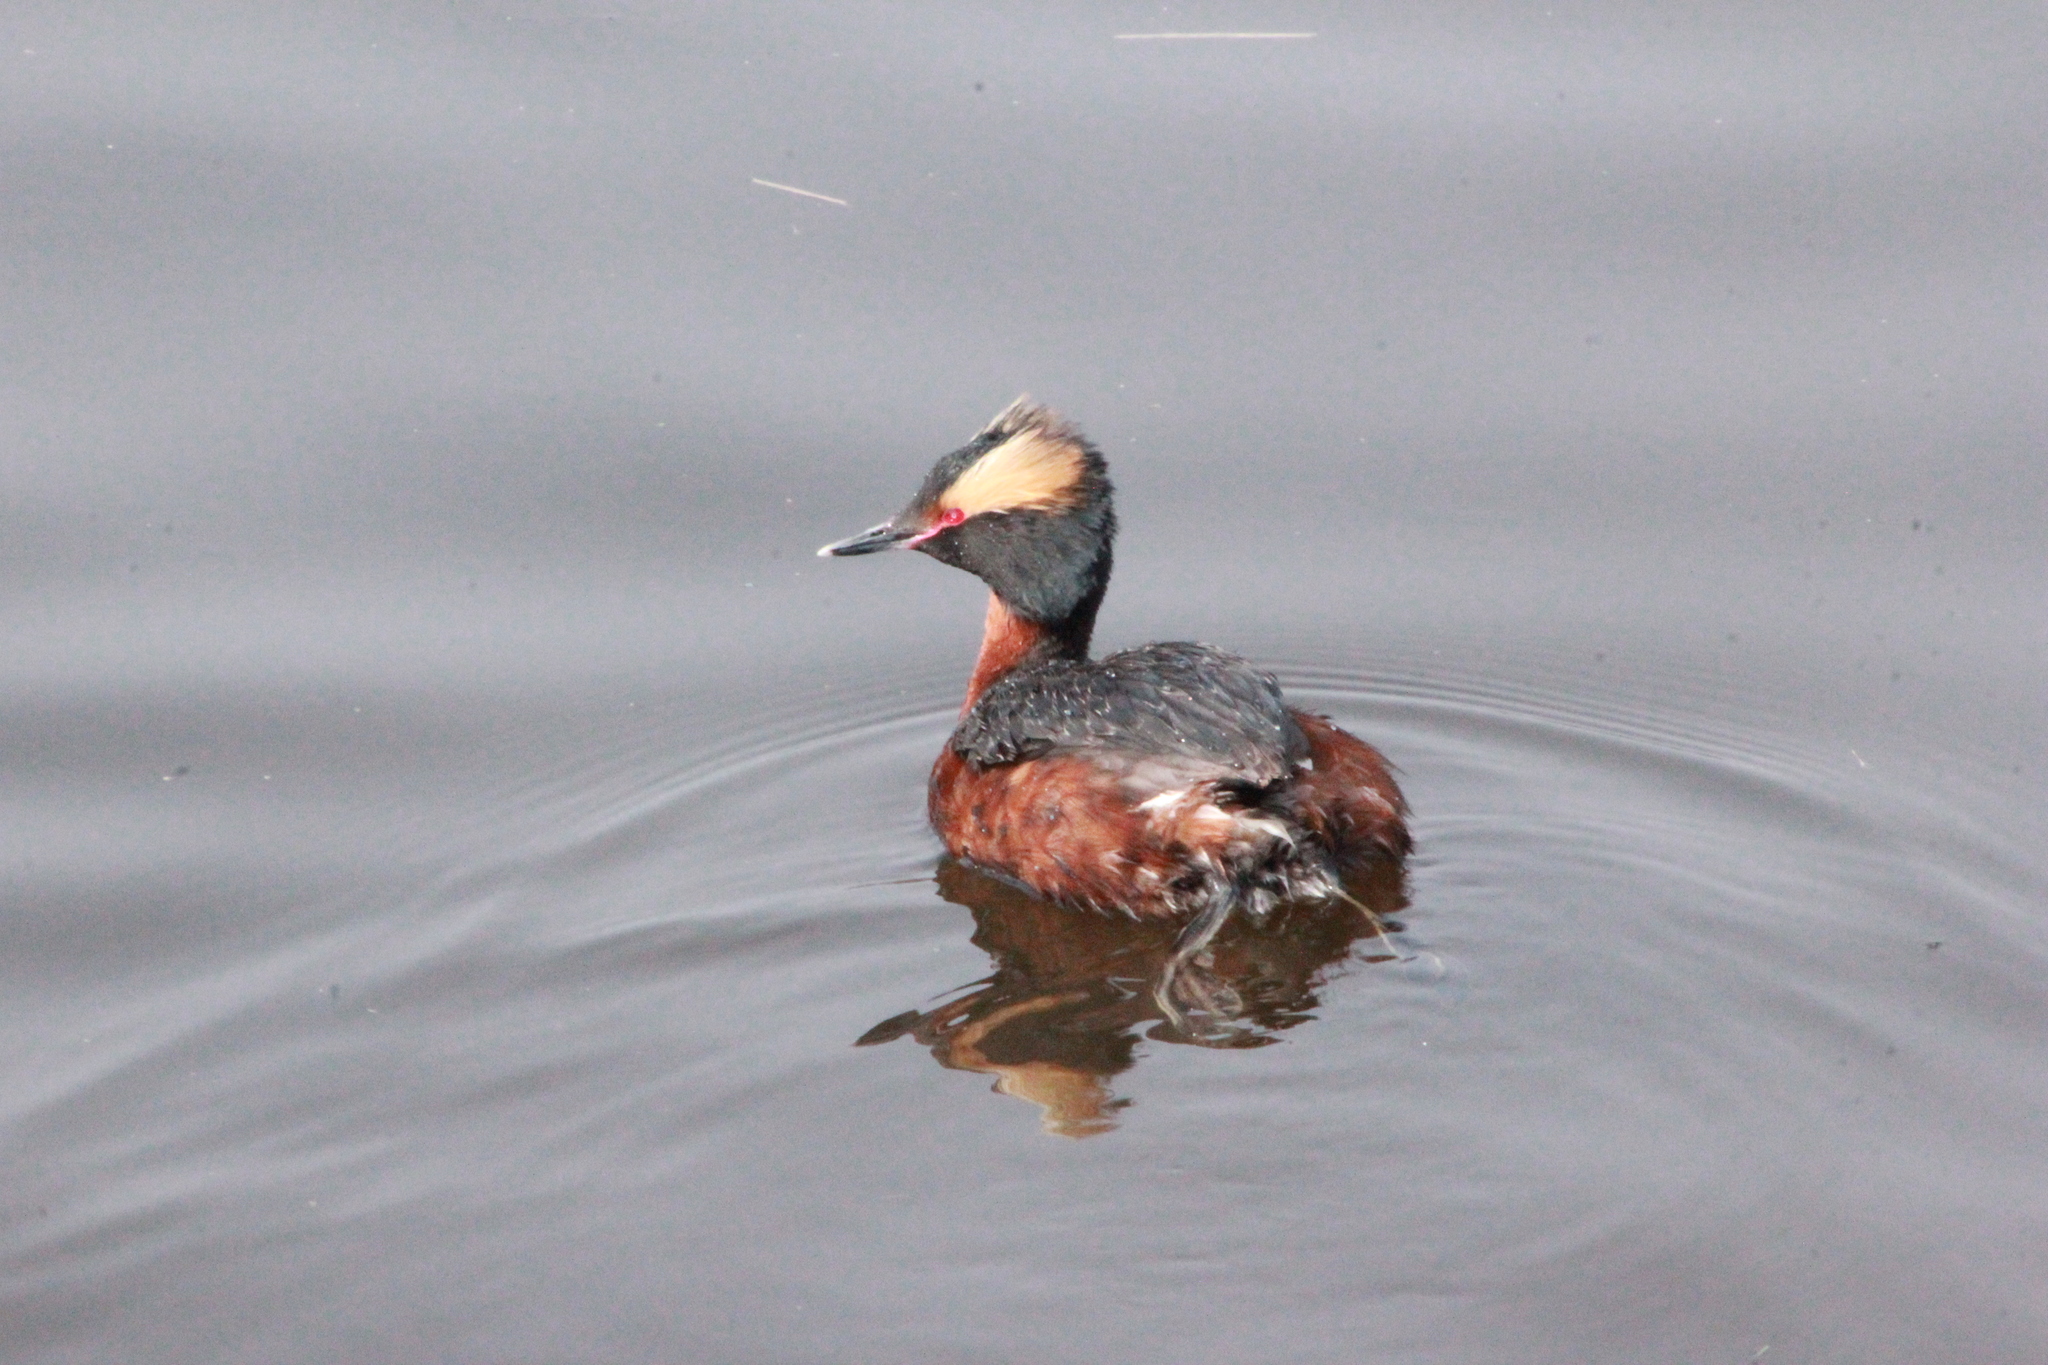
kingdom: Animalia
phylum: Chordata
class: Aves
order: Podicipediformes
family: Podicipedidae
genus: Podiceps
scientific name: Podiceps auritus
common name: Horned grebe
